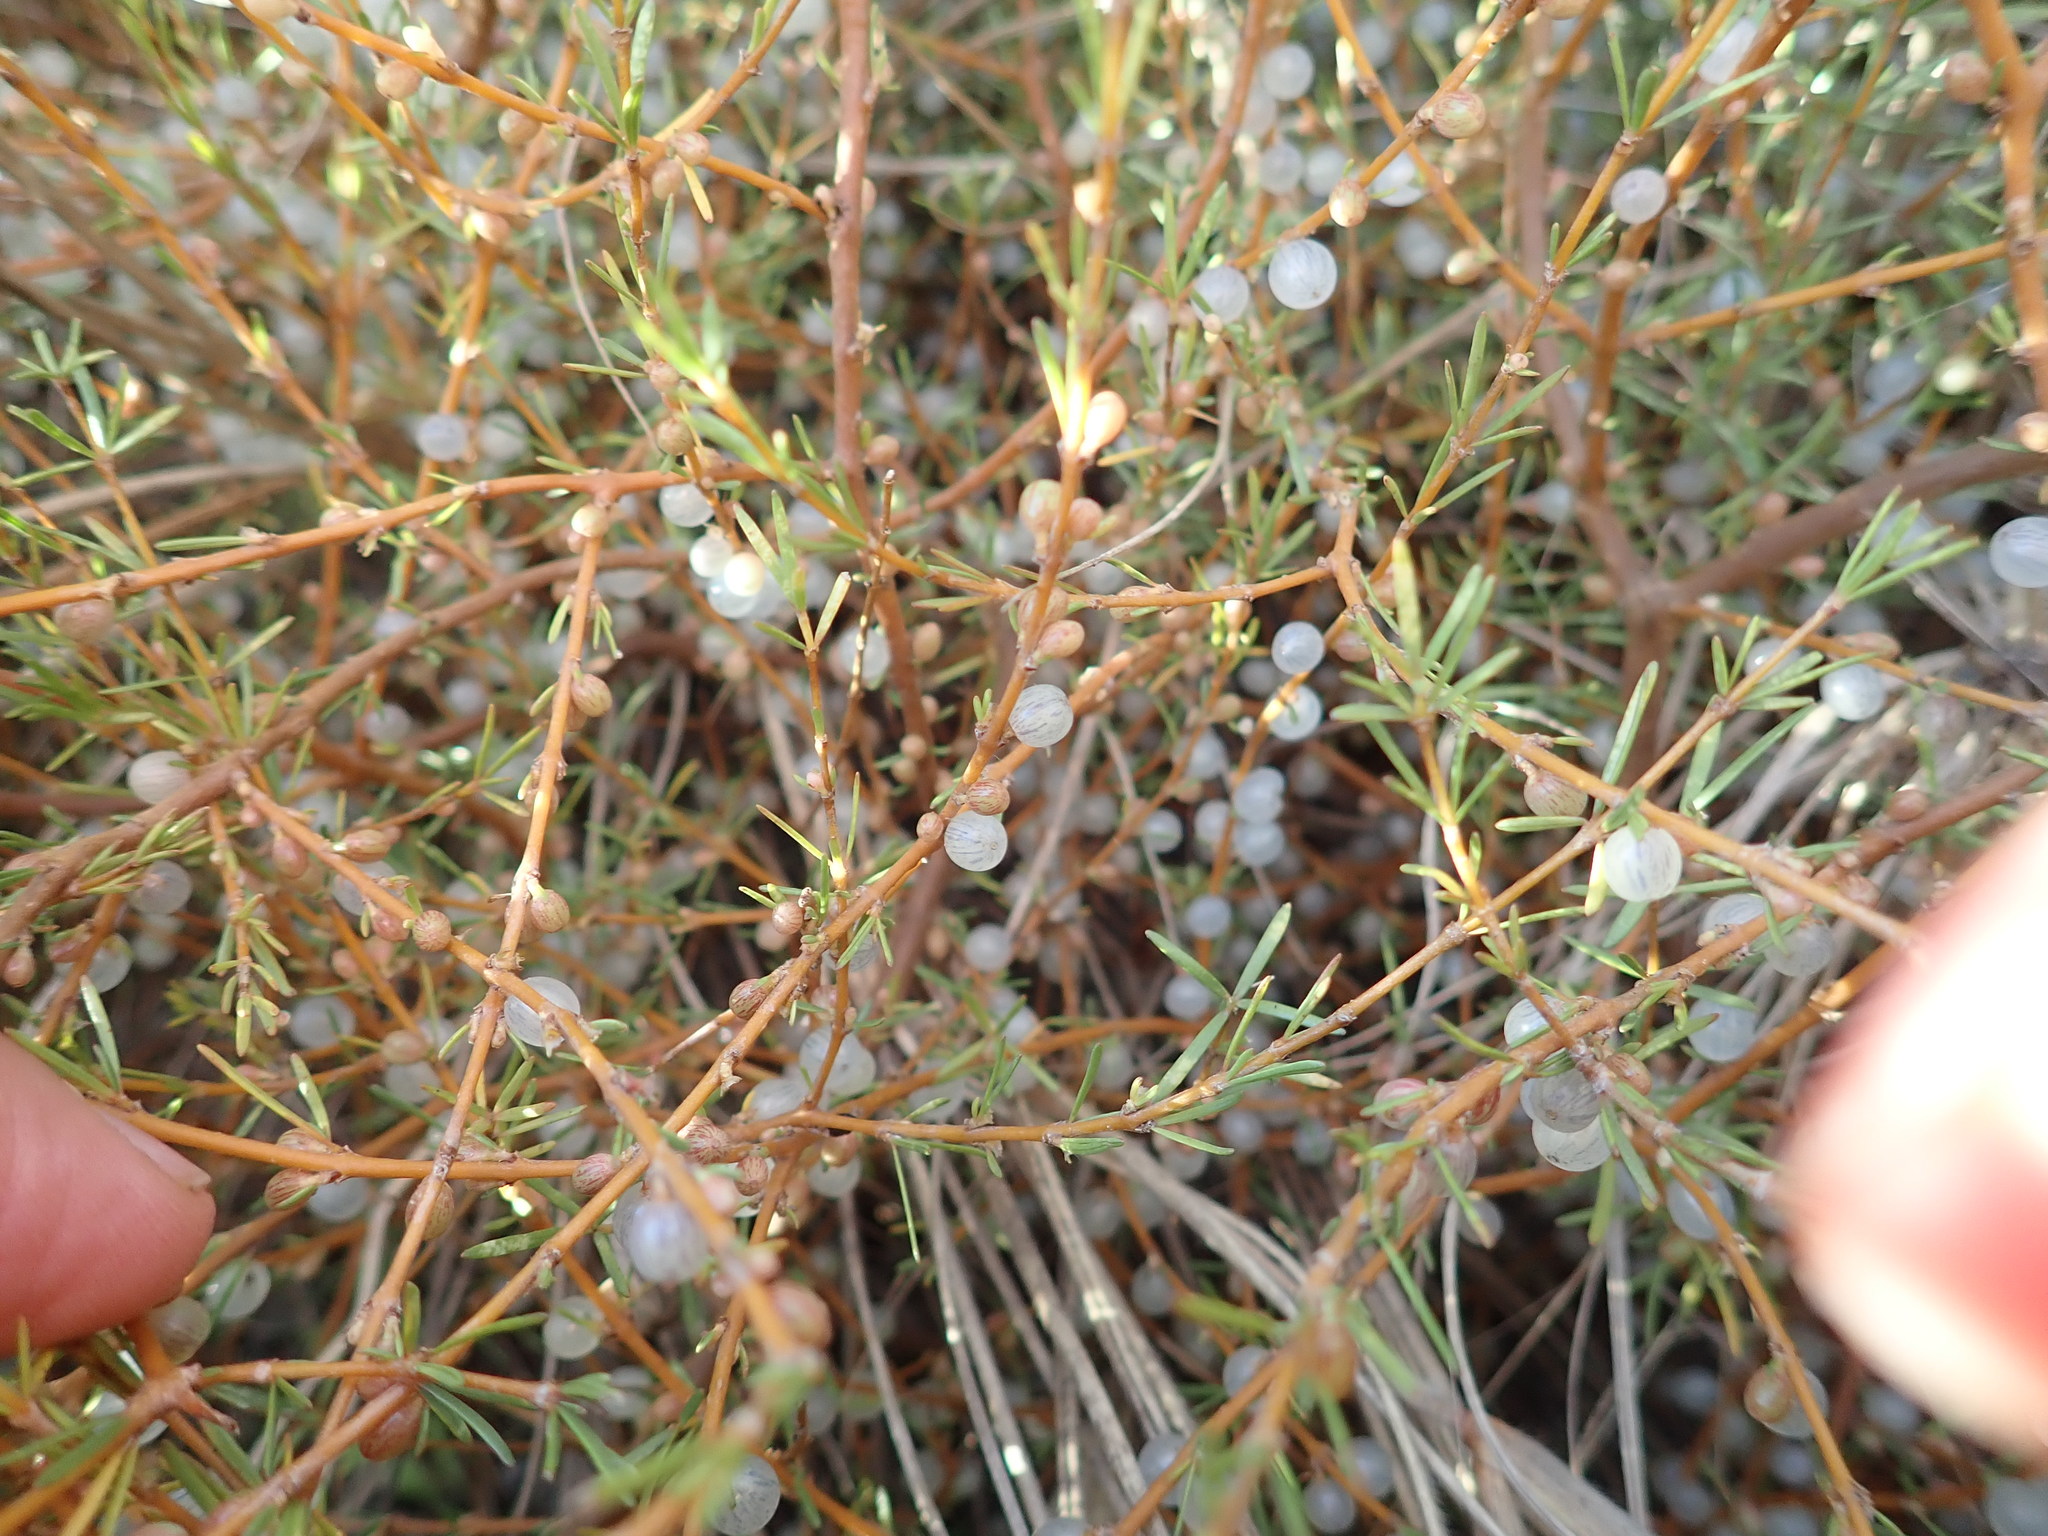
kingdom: Plantae
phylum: Tracheophyta
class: Magnoliopsida
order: Gentianales
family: Rubiaceae
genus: Coprosma
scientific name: Coprosma acerosa
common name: Sand coprosma
